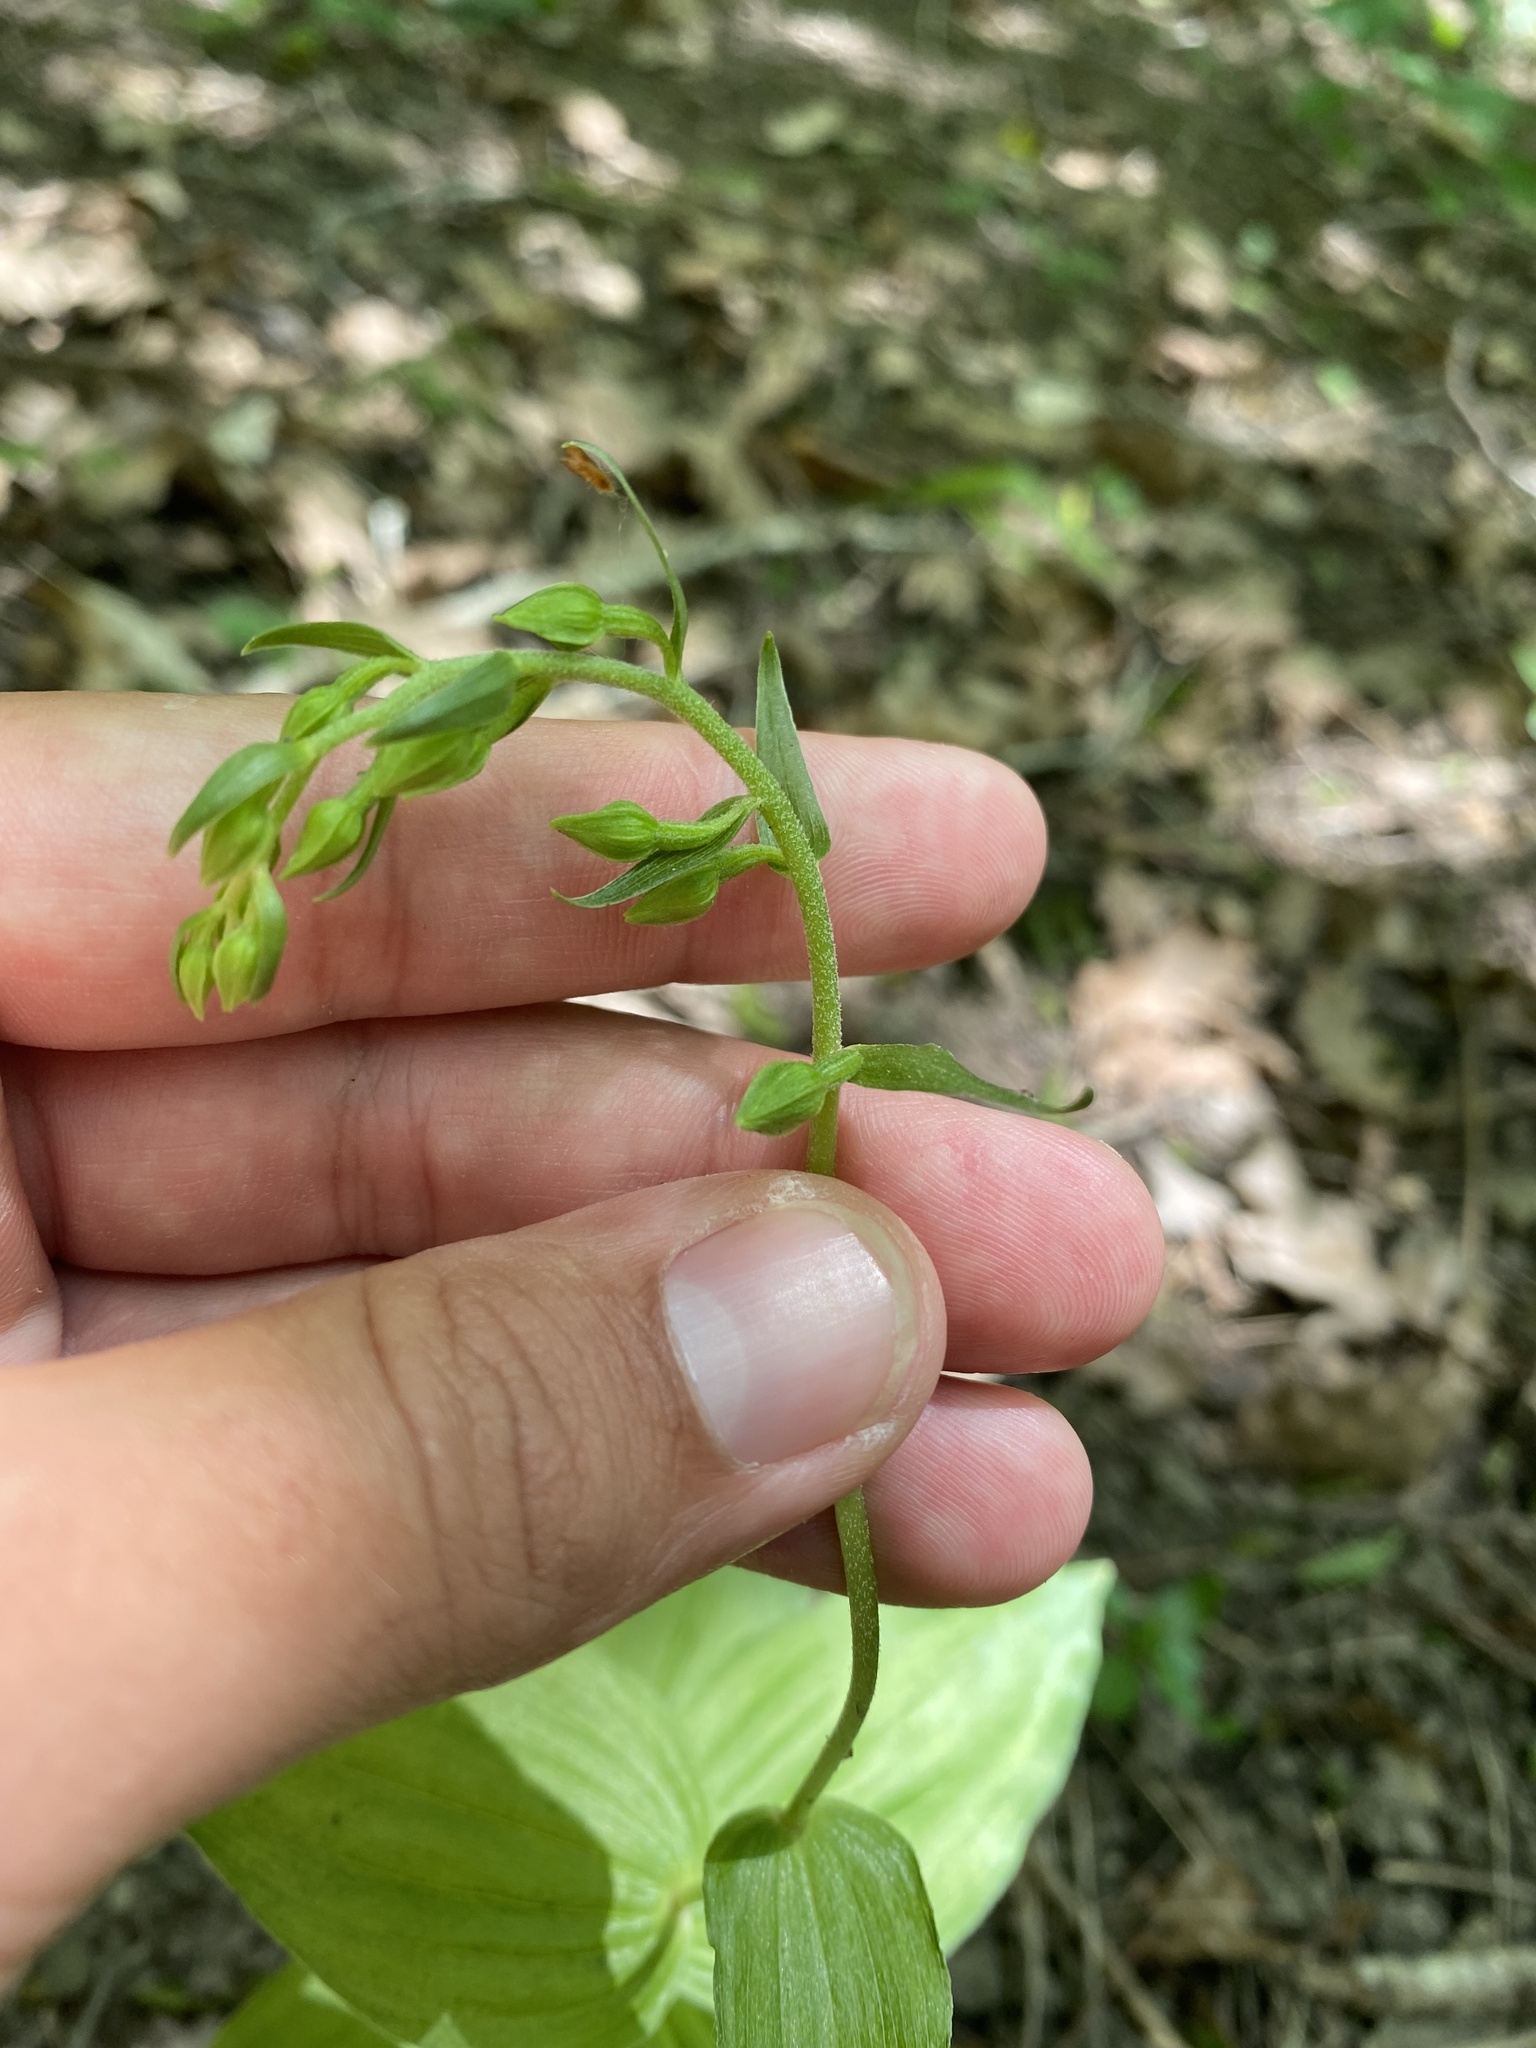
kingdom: Plantae
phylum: Tracheophyta
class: Liliopsida
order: Asparagales
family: Orchidaceae
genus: Epipactis
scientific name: Epipactis helleborine
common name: Broad-leaved helleborine
